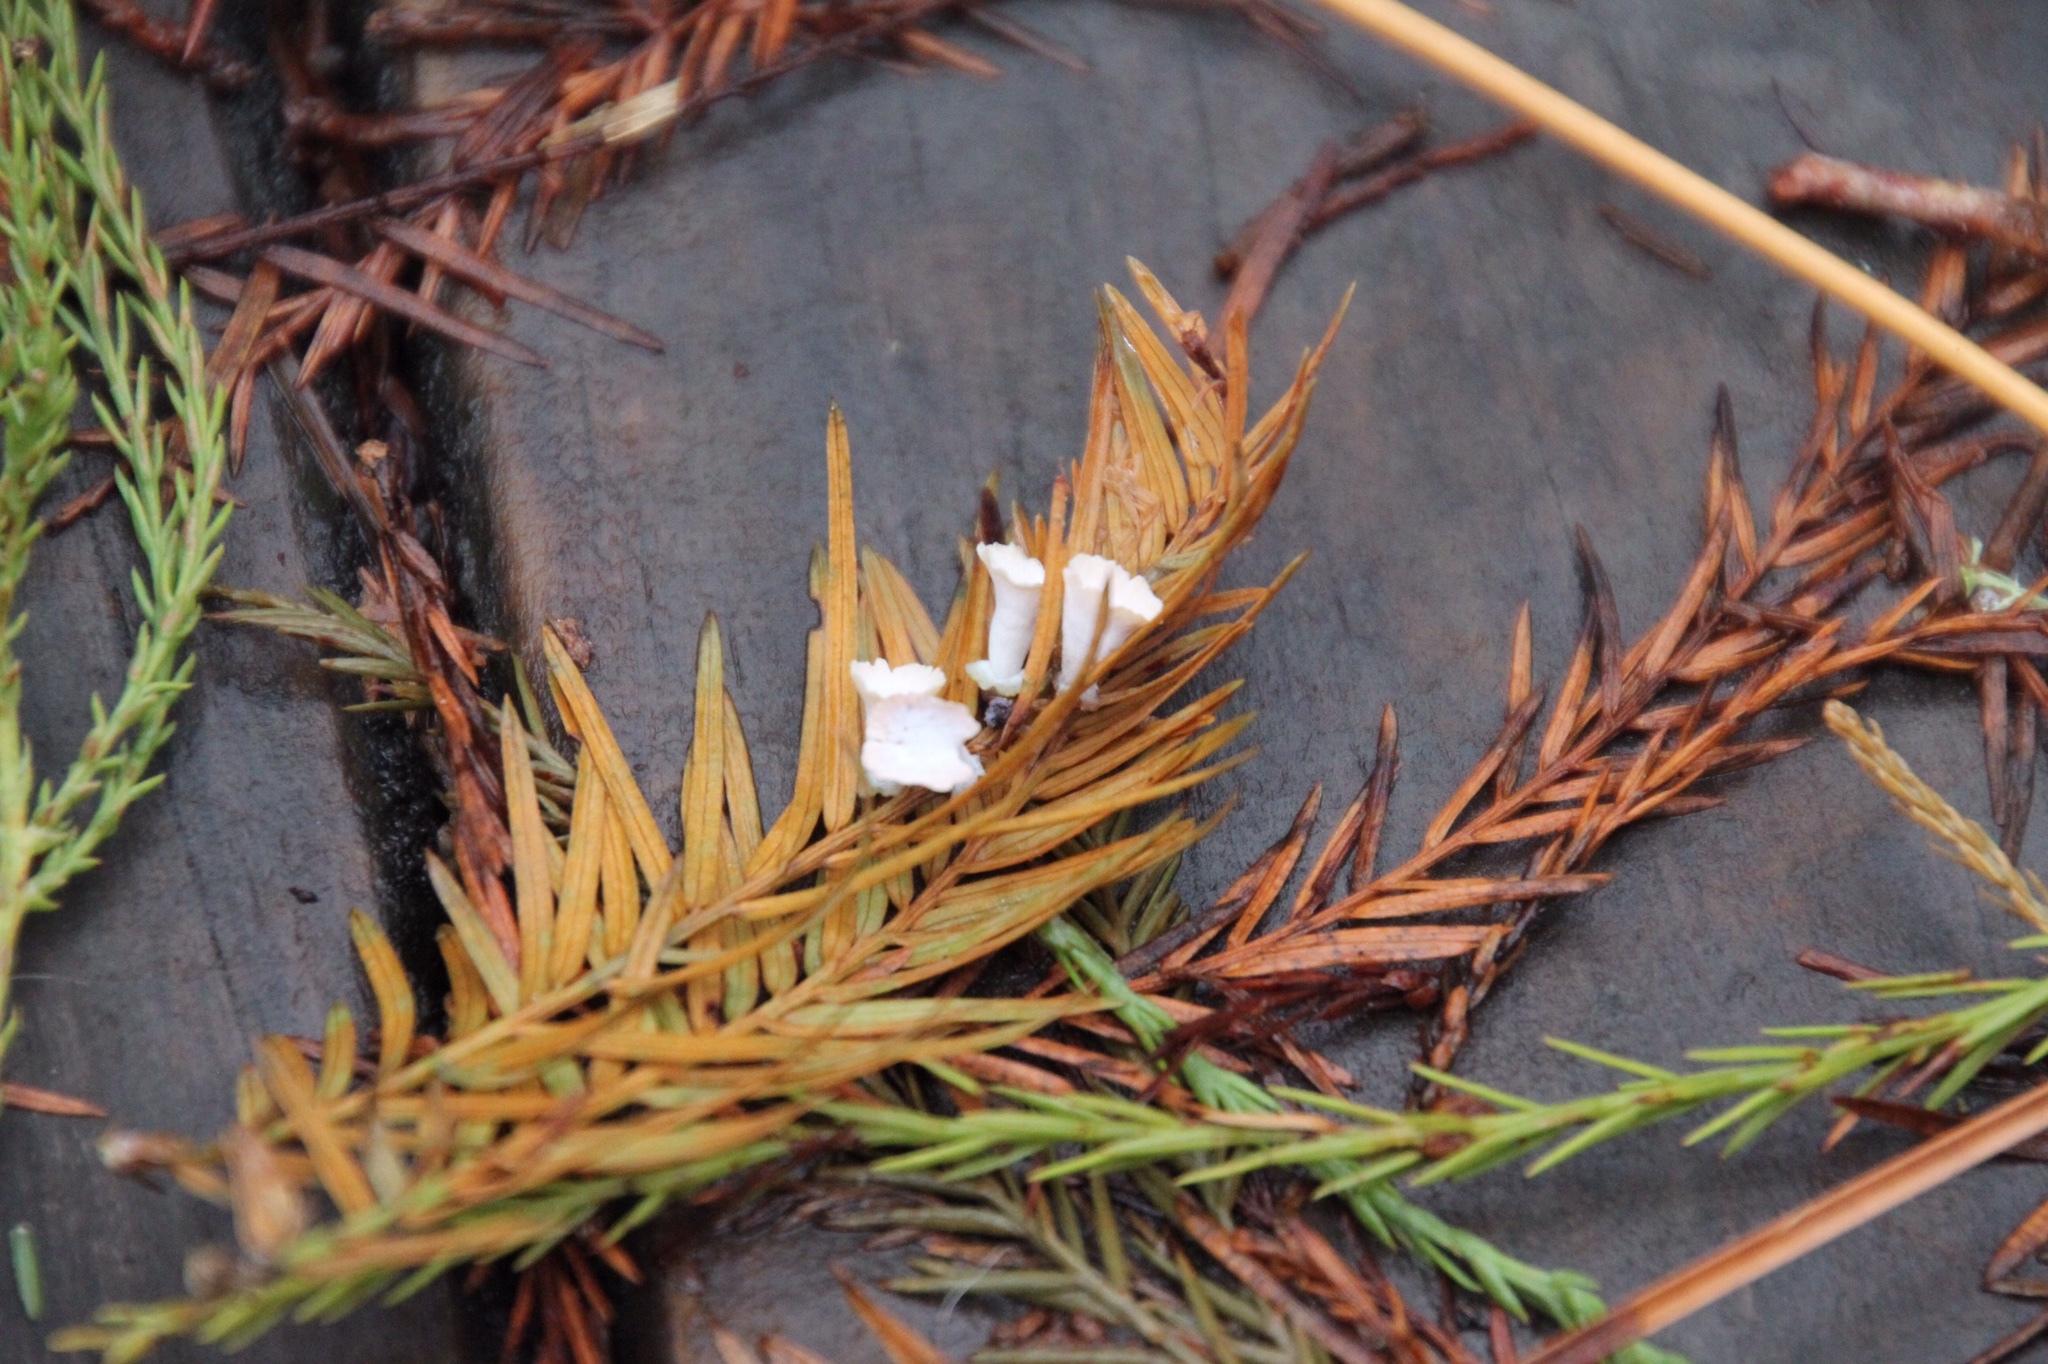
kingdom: Animalia
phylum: Arthropoda
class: Insecta
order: Diptera
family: Cecidomyiidae
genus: Taxodiomyia
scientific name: Taxodiomyia cupressi
